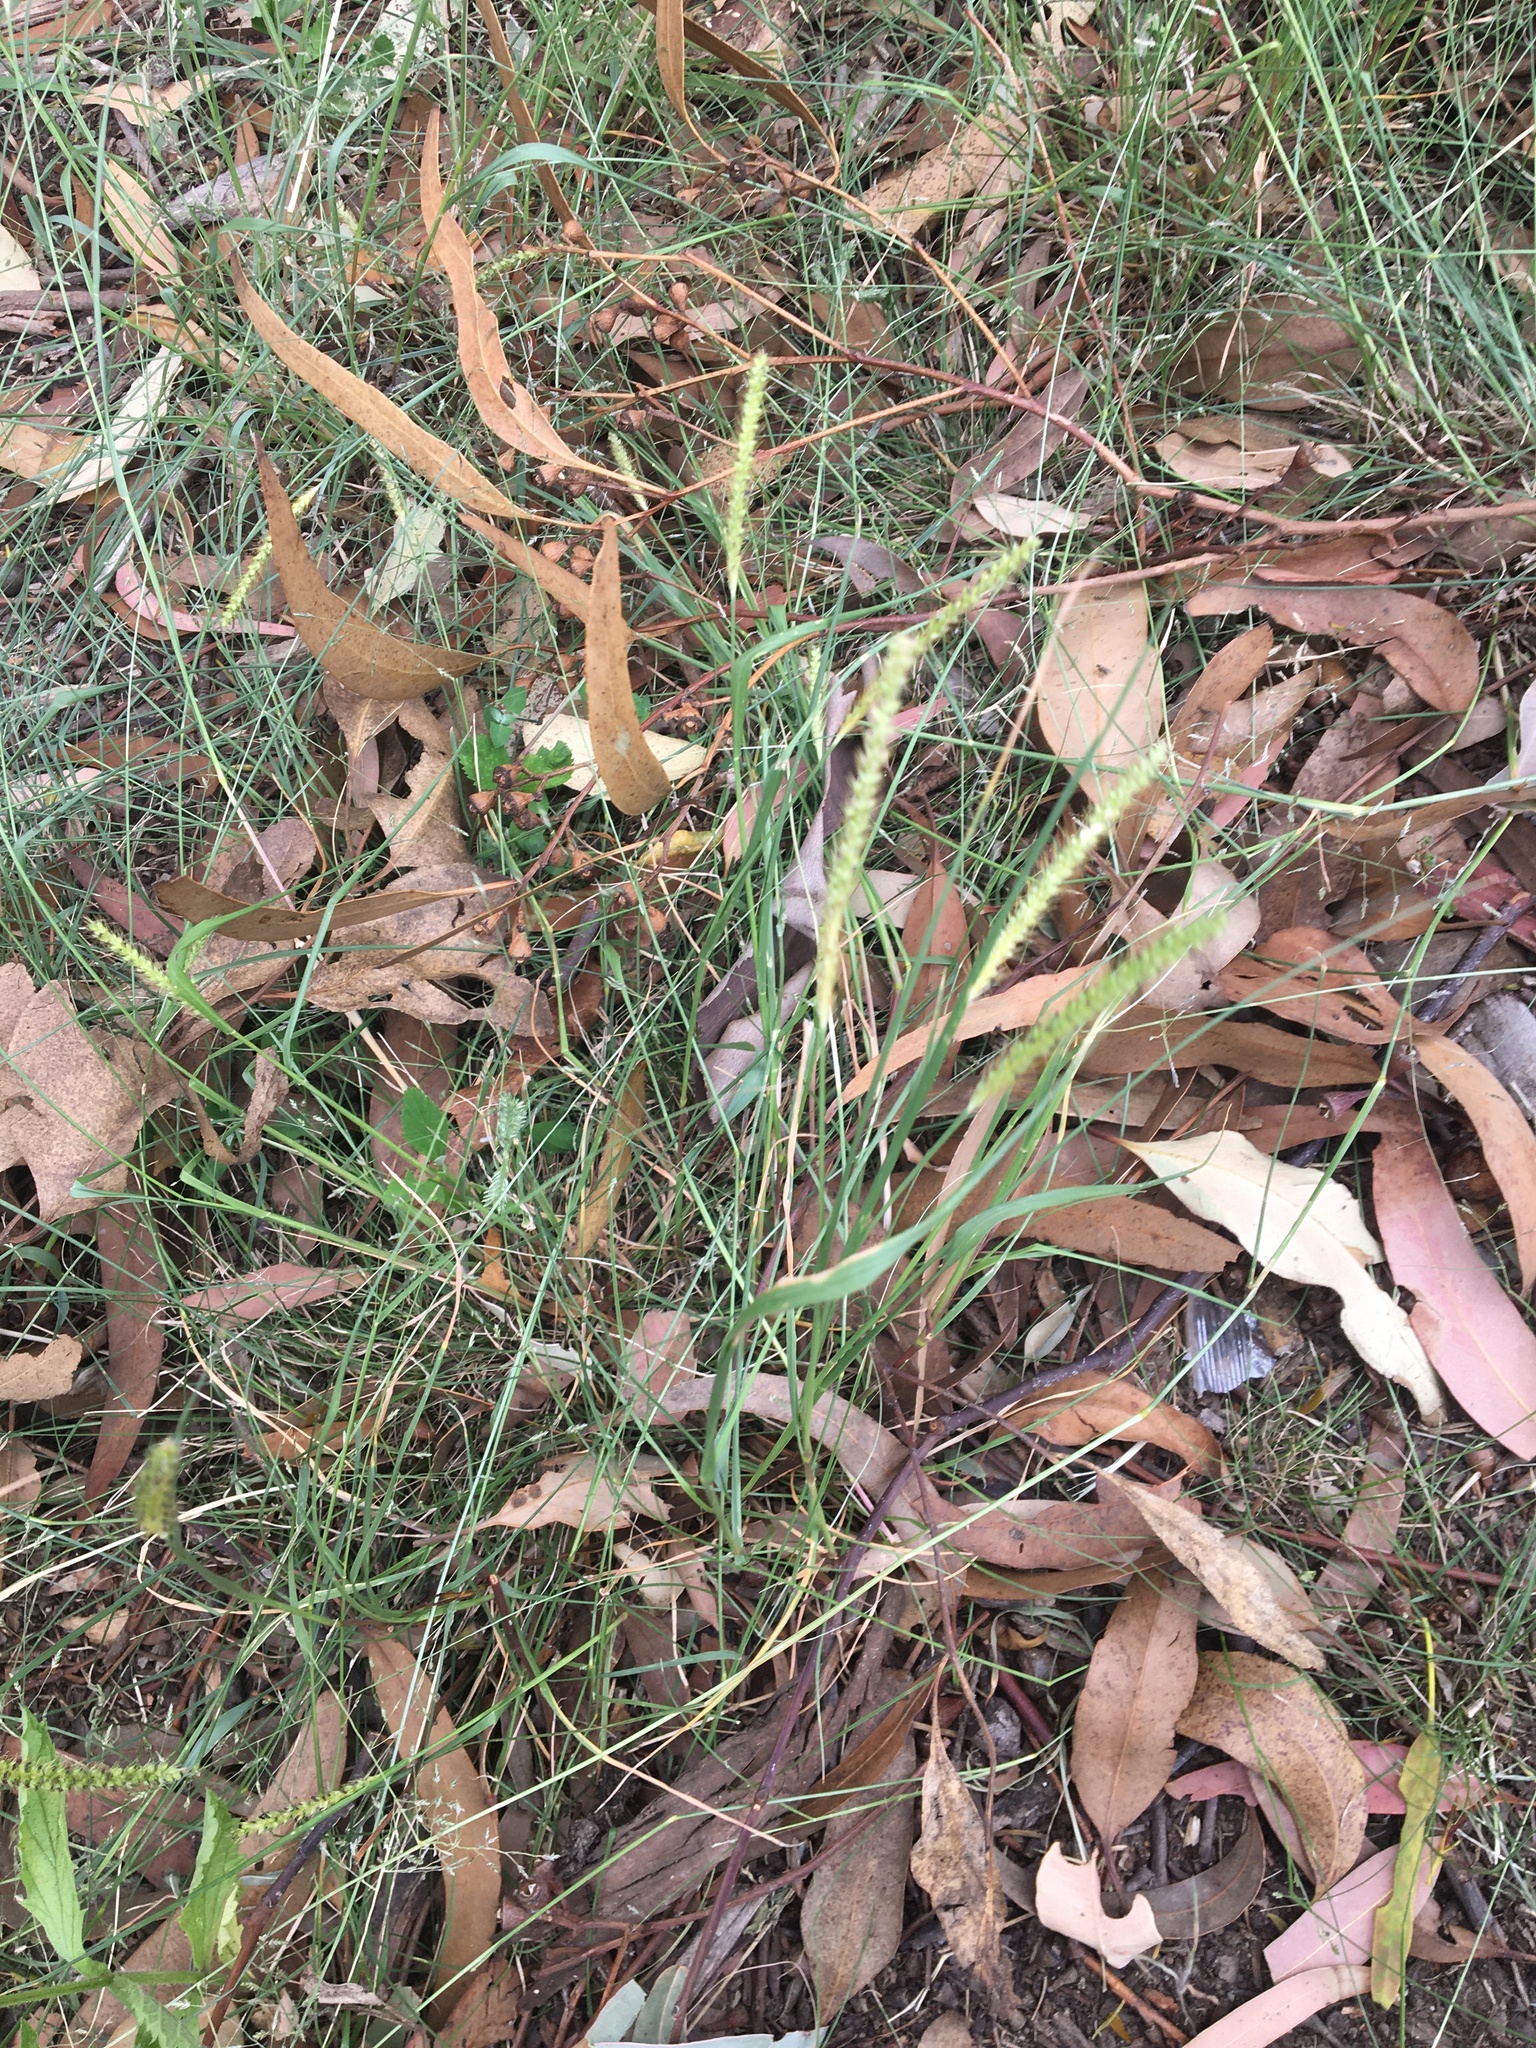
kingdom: Plantae
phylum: Tracheophyta
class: Liliopsida
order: Poales
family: Poaceae
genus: Setaria
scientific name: Setaria parviflora
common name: Knotroot bristle-grass
